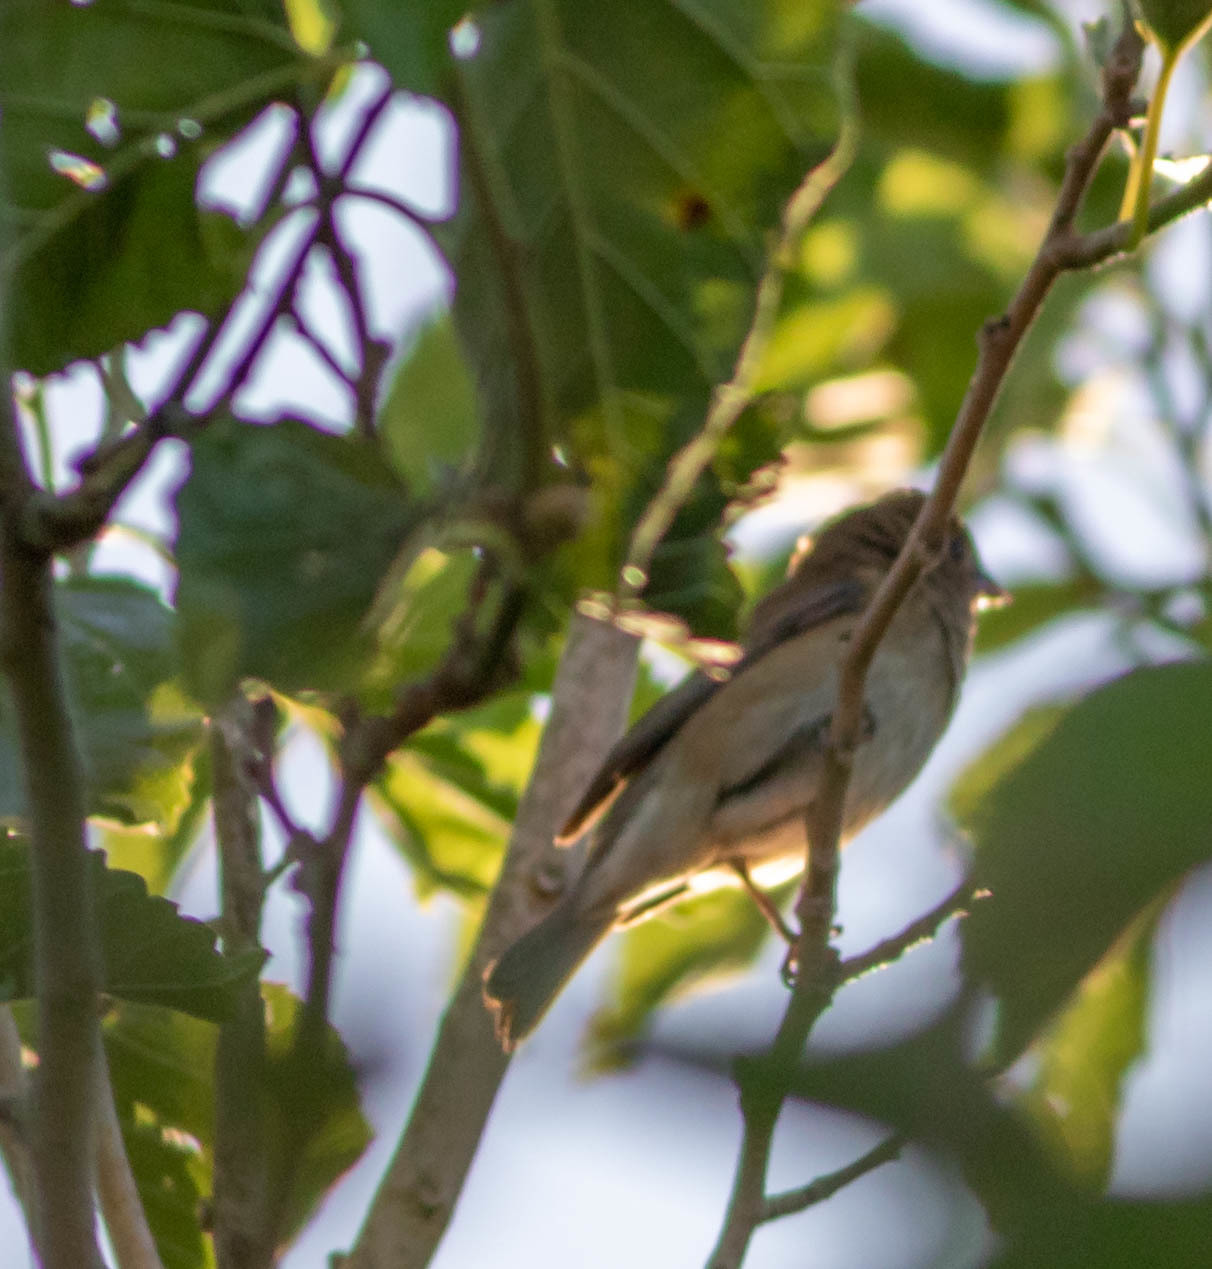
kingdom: Animalia
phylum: Chordata
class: Aves
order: Passeriformes
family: Cardinalidae
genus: Passerina
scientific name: Passerina cyanea
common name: Indigo bunting
